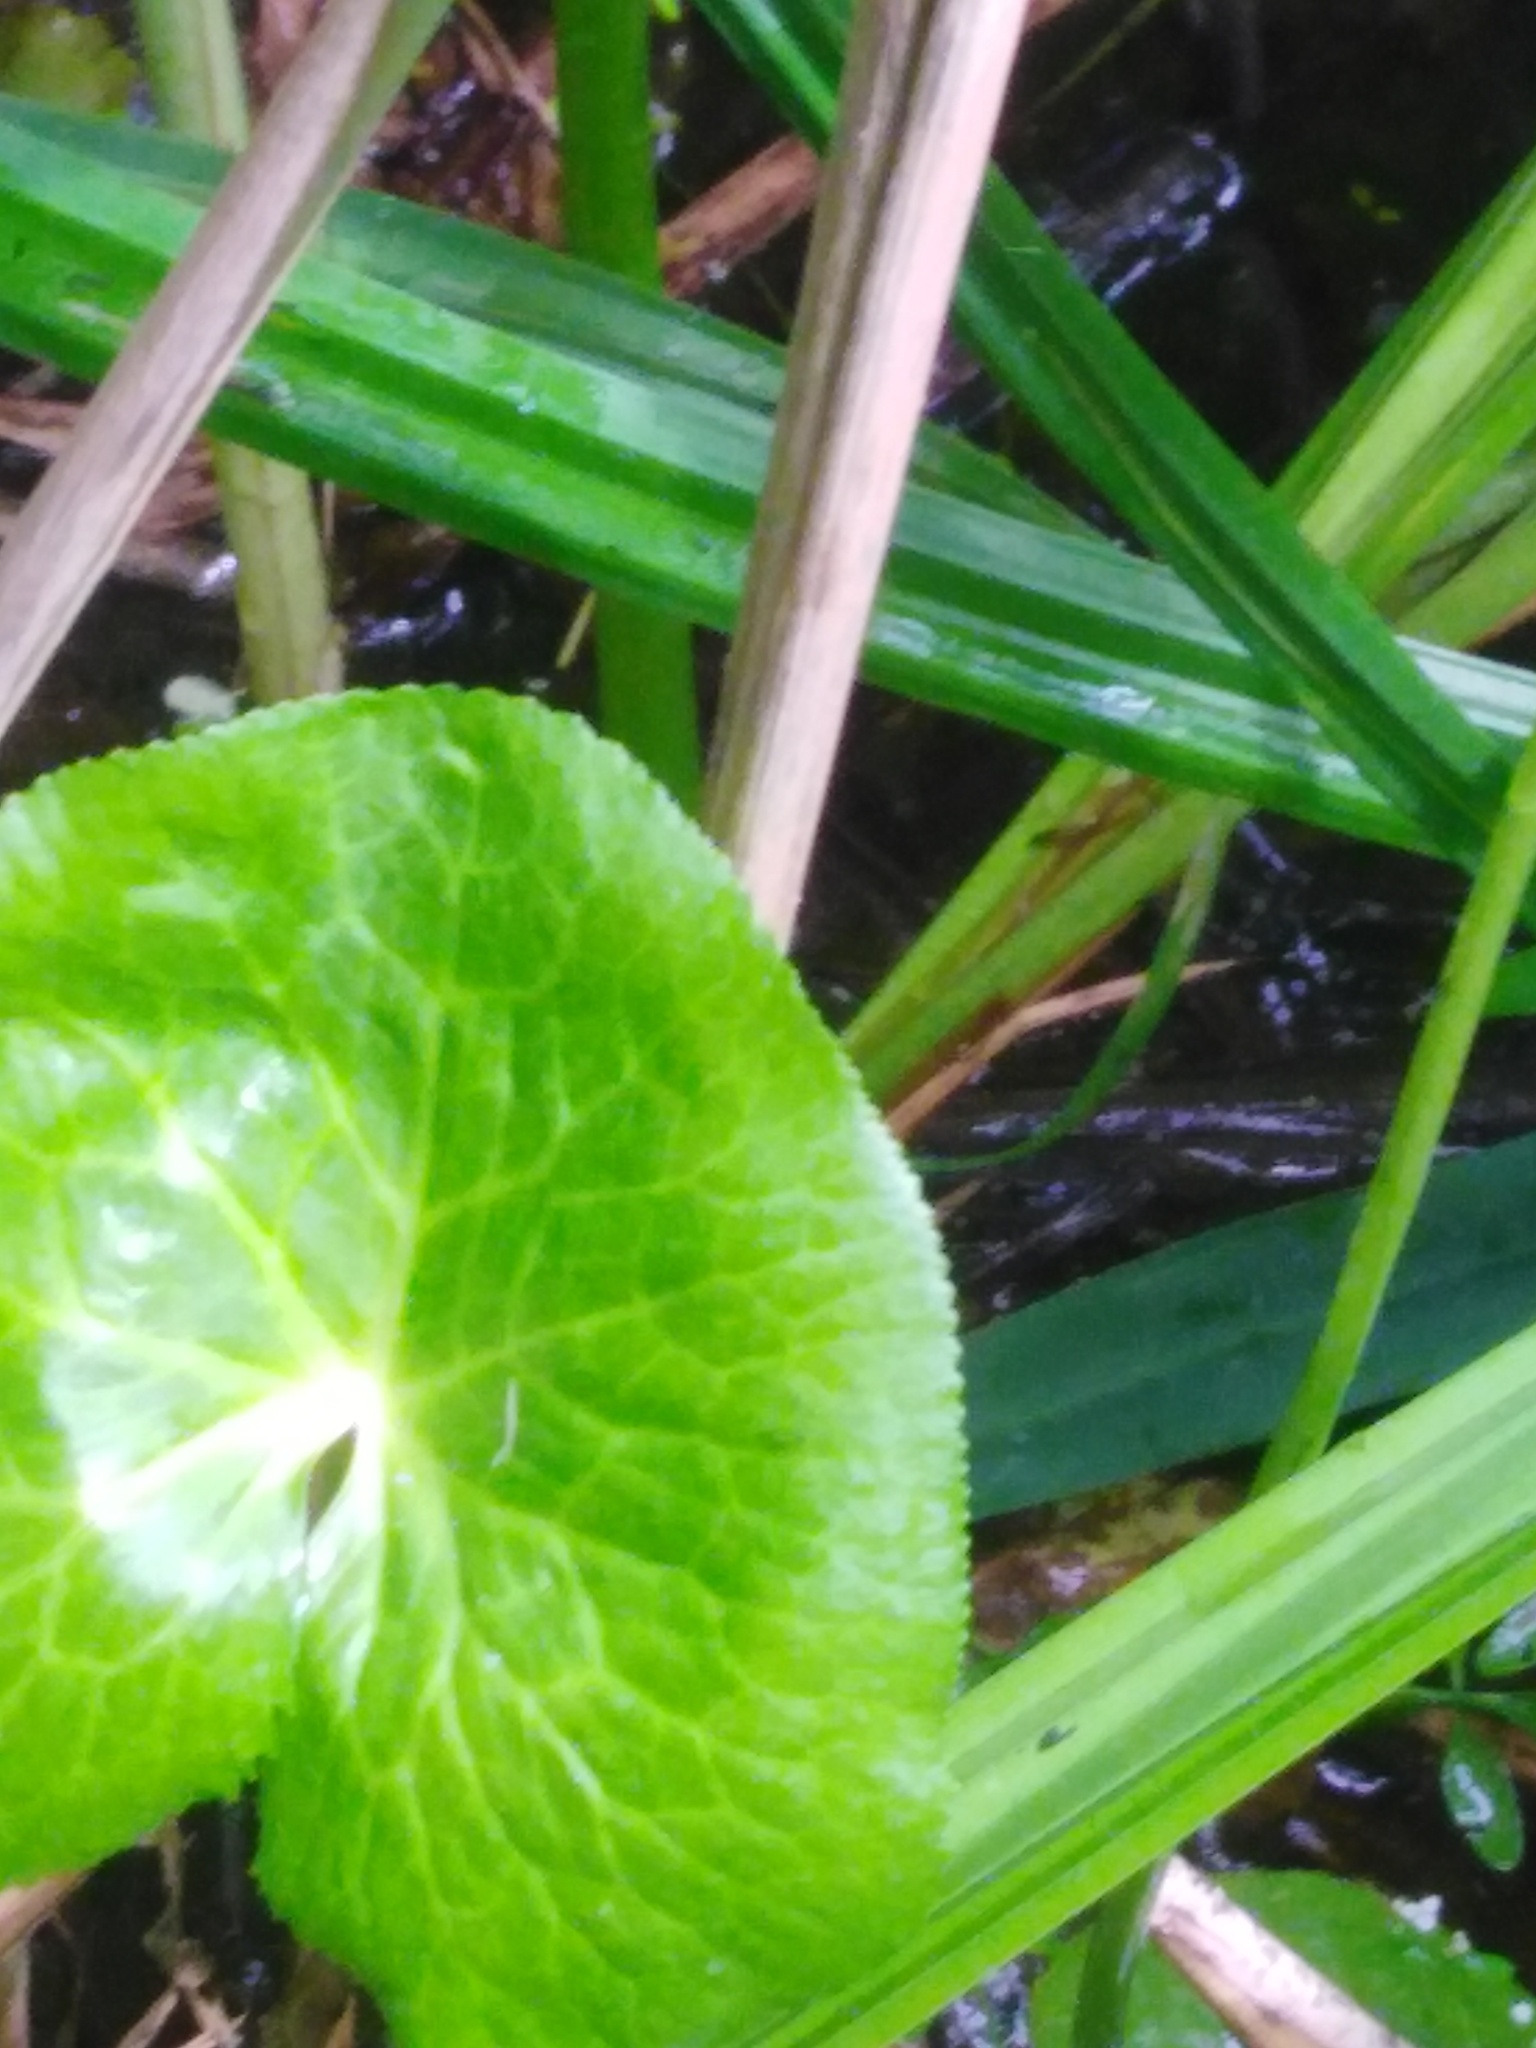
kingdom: Plantae
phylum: Tracheophyta
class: Magnoliopsida
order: Ranunculales
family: Ranunculaceae
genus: Caltha
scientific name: Caltha palustris
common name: Marsh marigold
